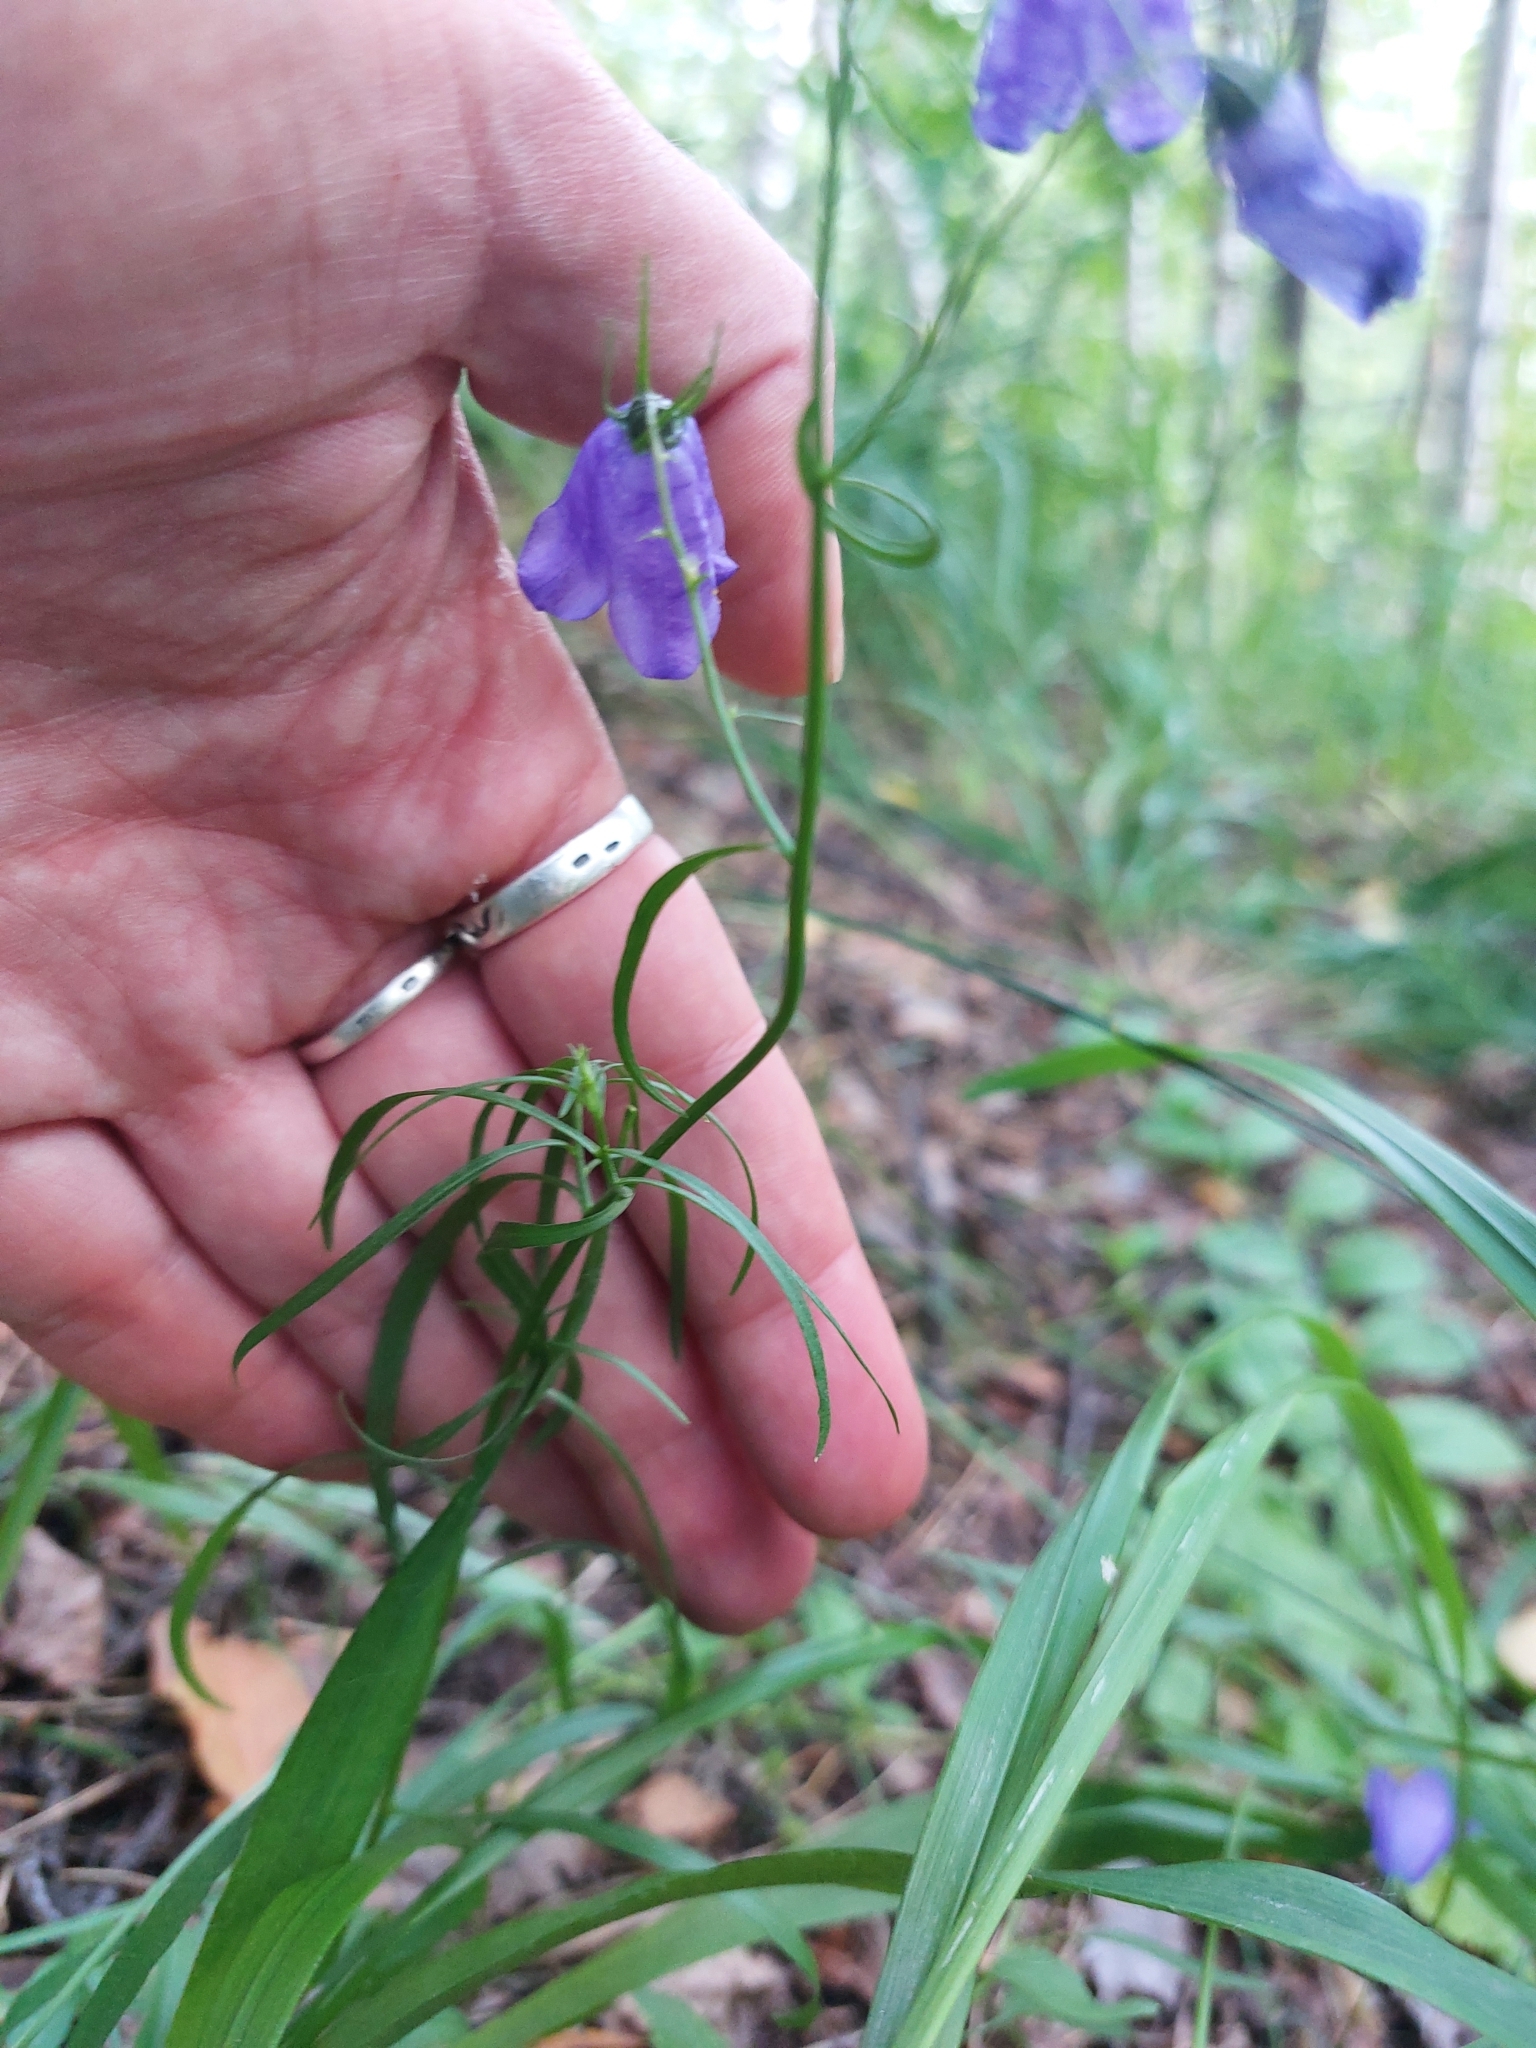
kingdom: Plantae
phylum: Tracheophyta
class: Magnoliopsida
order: Asterales
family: Campanulaceae
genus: Campanula
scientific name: Campanula rotundifolia
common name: Harebell
